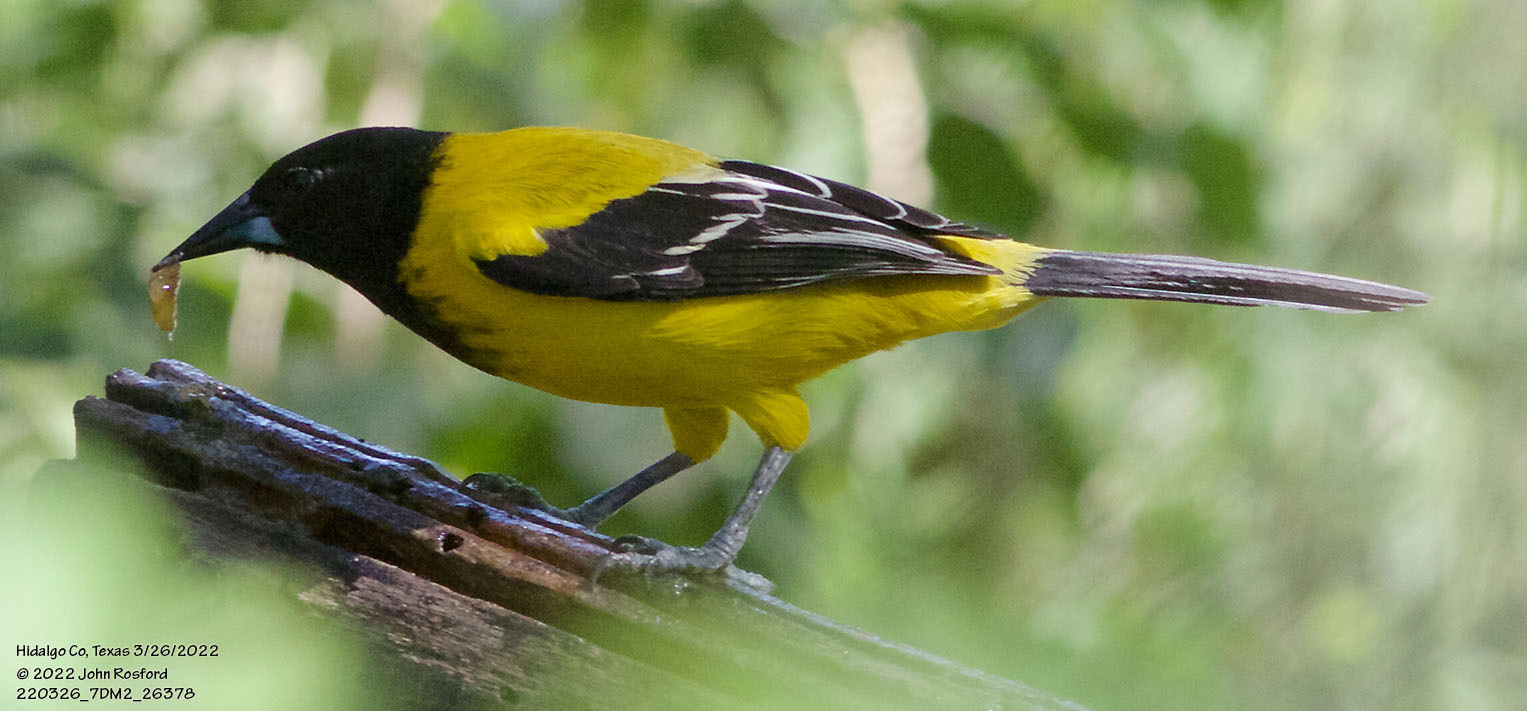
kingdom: Animalia
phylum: Chordata
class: Aves
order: Passeriformes
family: Icteridae
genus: Icterus
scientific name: Icterus graduacauda
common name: Audubon's oriole
